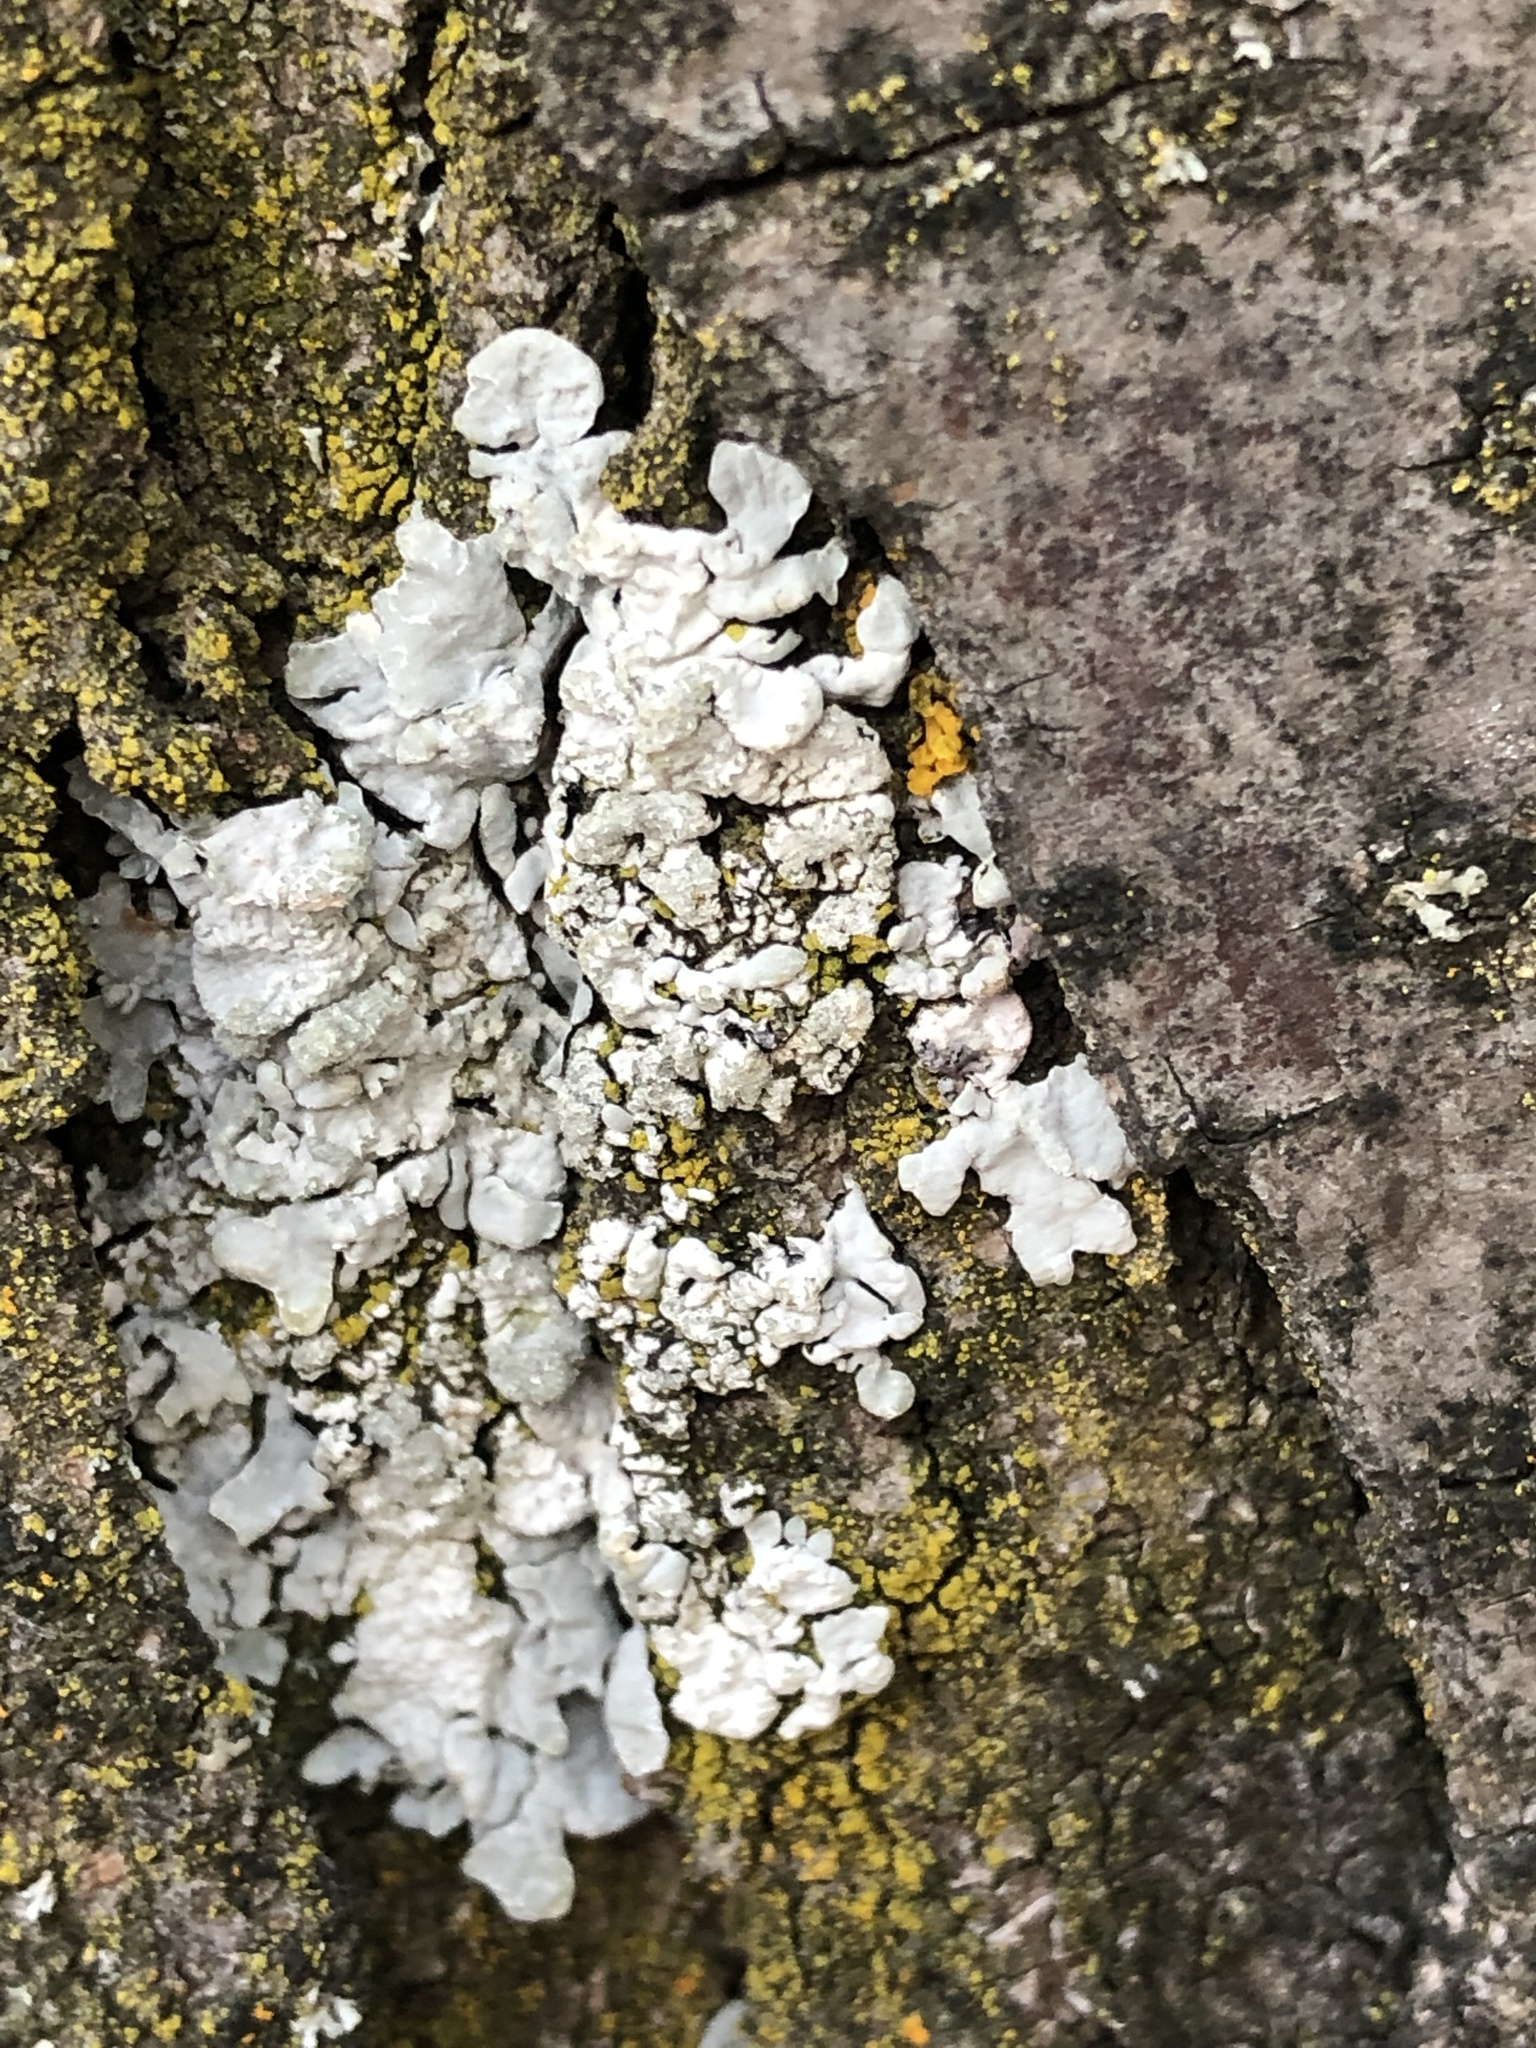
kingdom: Fungi
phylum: Ascomycota
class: Lecanoromycetes
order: Lecanorales
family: Parmeliaceae
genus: Parmelia
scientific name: Parmelia sulcata
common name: Netted shield lichen
